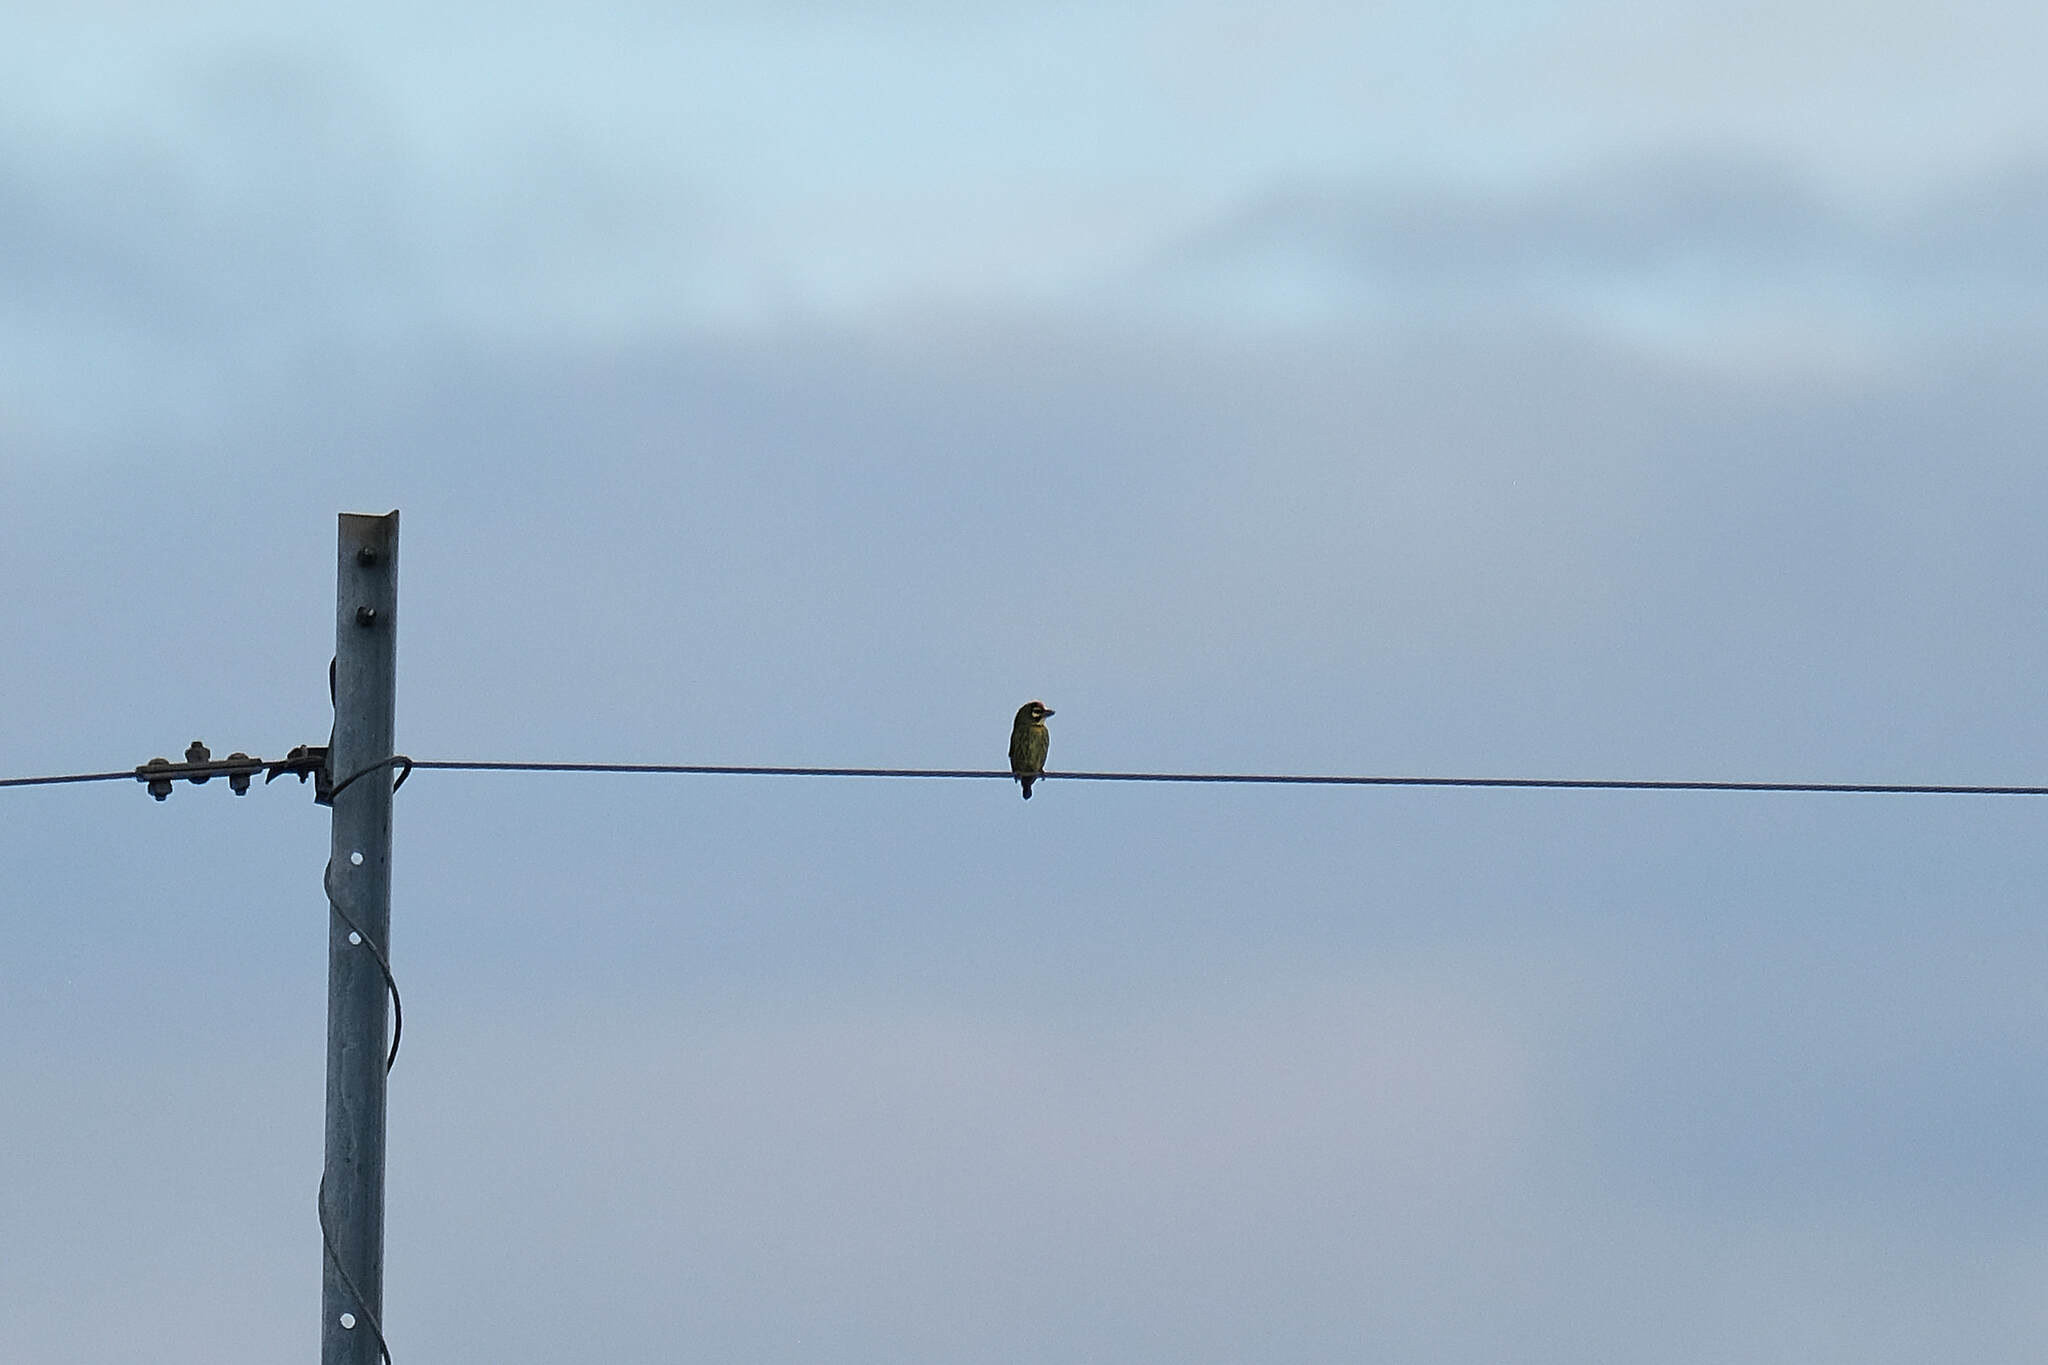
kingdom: Animalia
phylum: Chordata
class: Aves
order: Piciformes
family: Megalaimidae
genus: Psilopogon
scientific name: Psilopogon haemacephalus
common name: Coppersmith barbet
